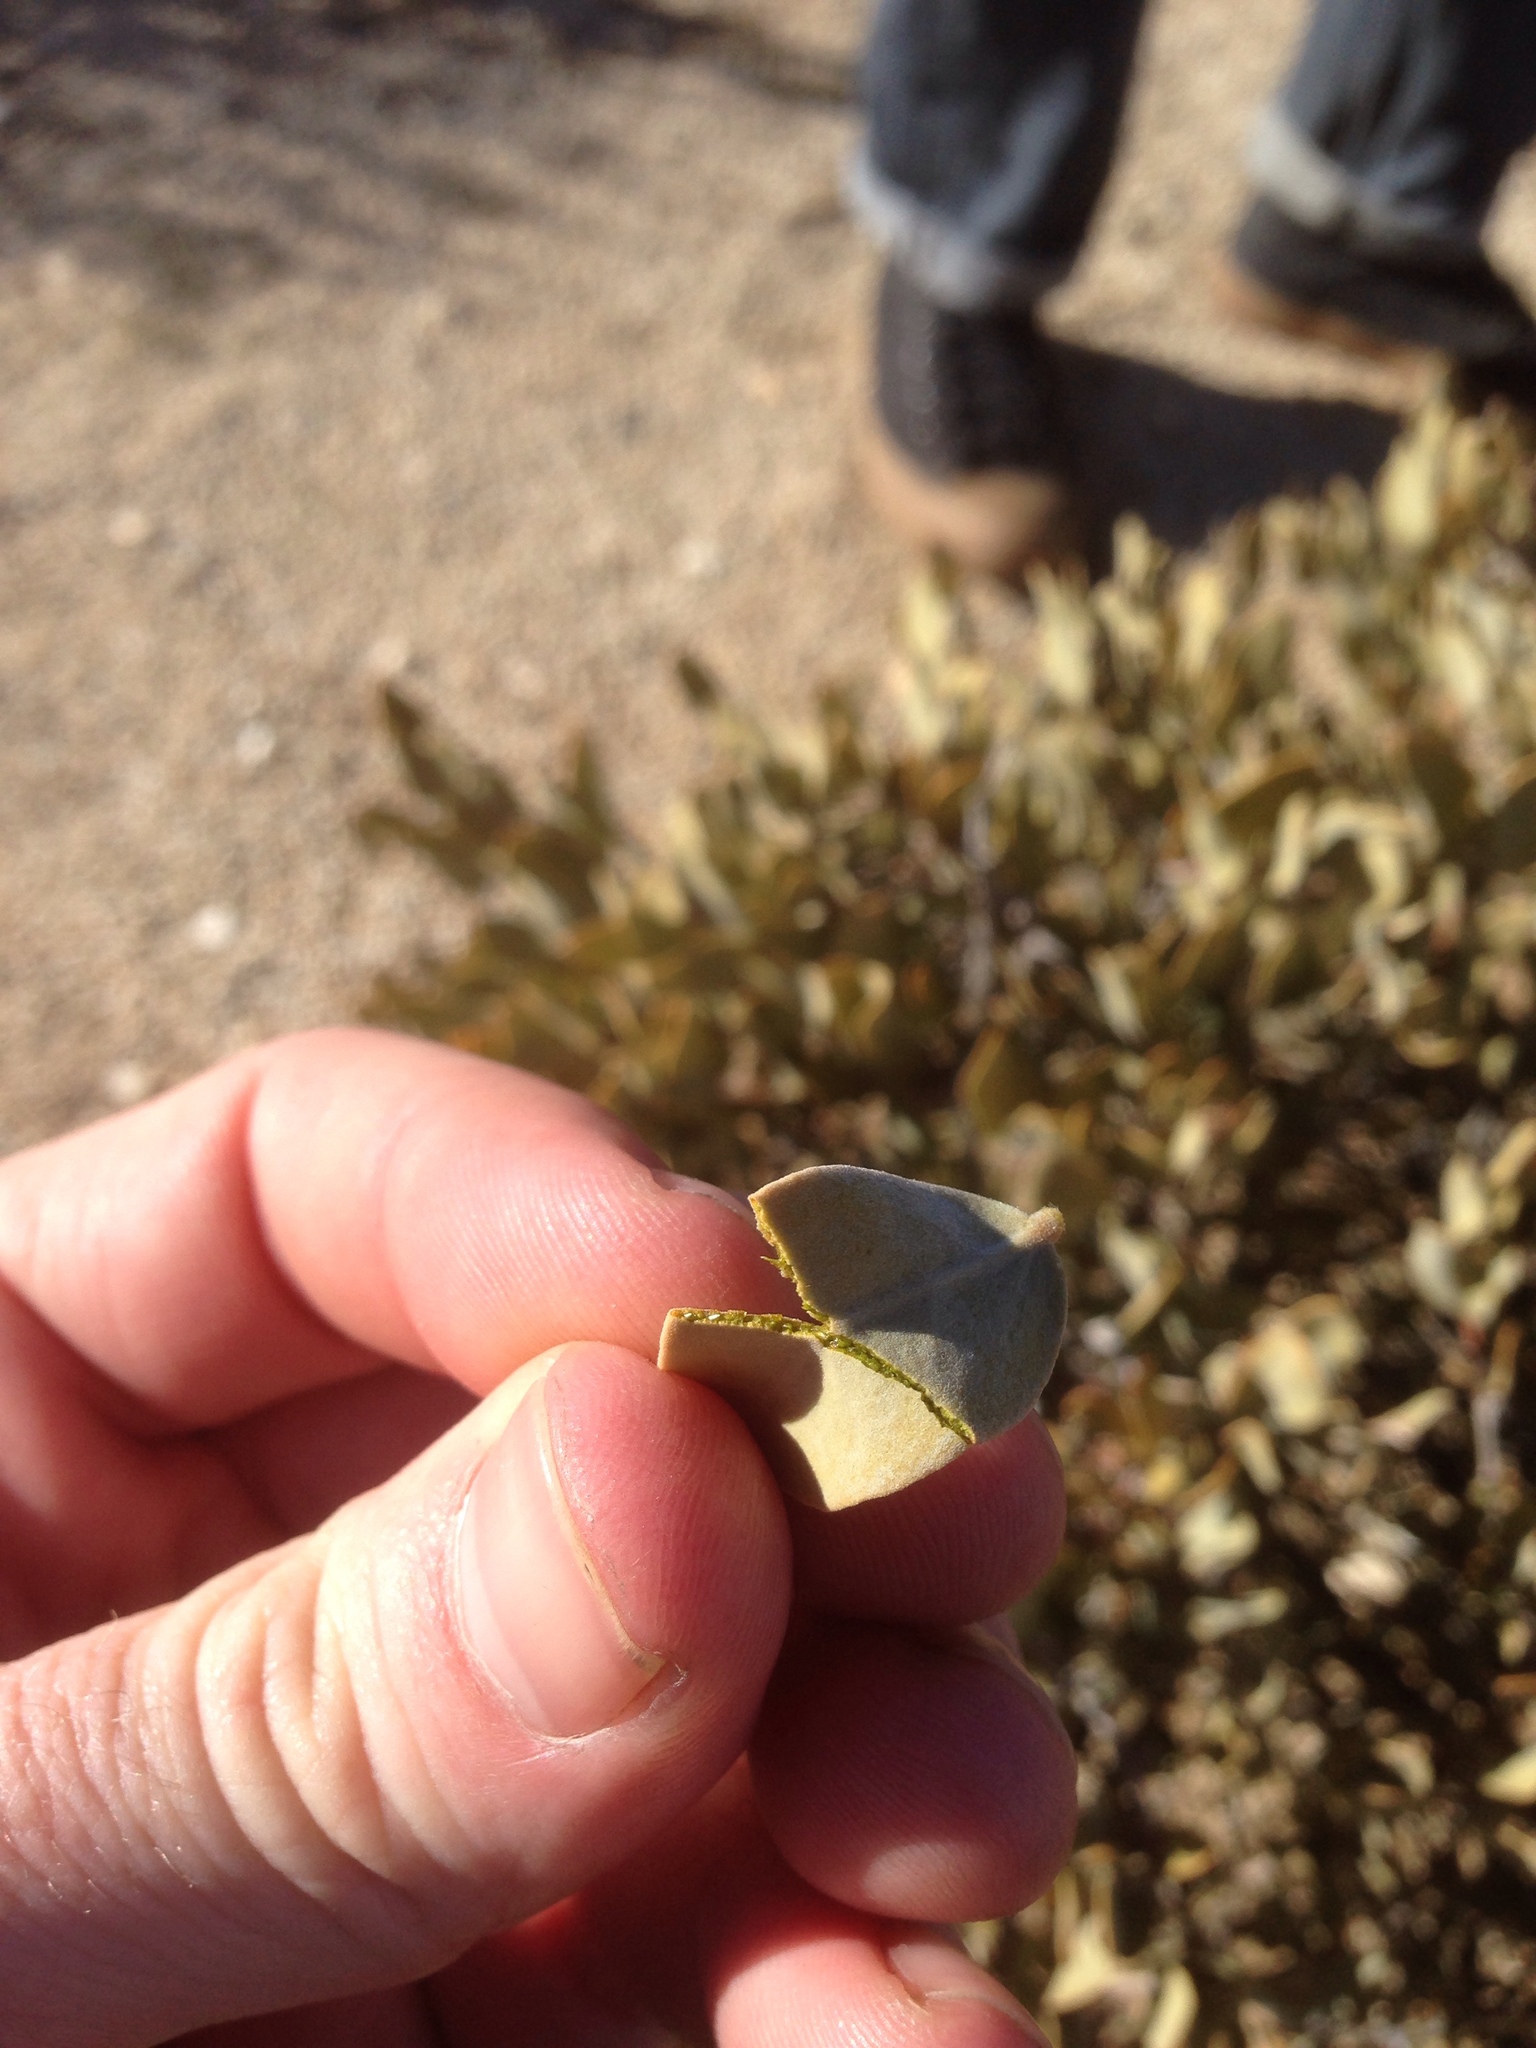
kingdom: Plantae
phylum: Tracheophyta
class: Magnoliopsida
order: Caryophyllales
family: Simmondsiaceae
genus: Simmondsia
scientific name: Simmondsia chinensis
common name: Jojoba
